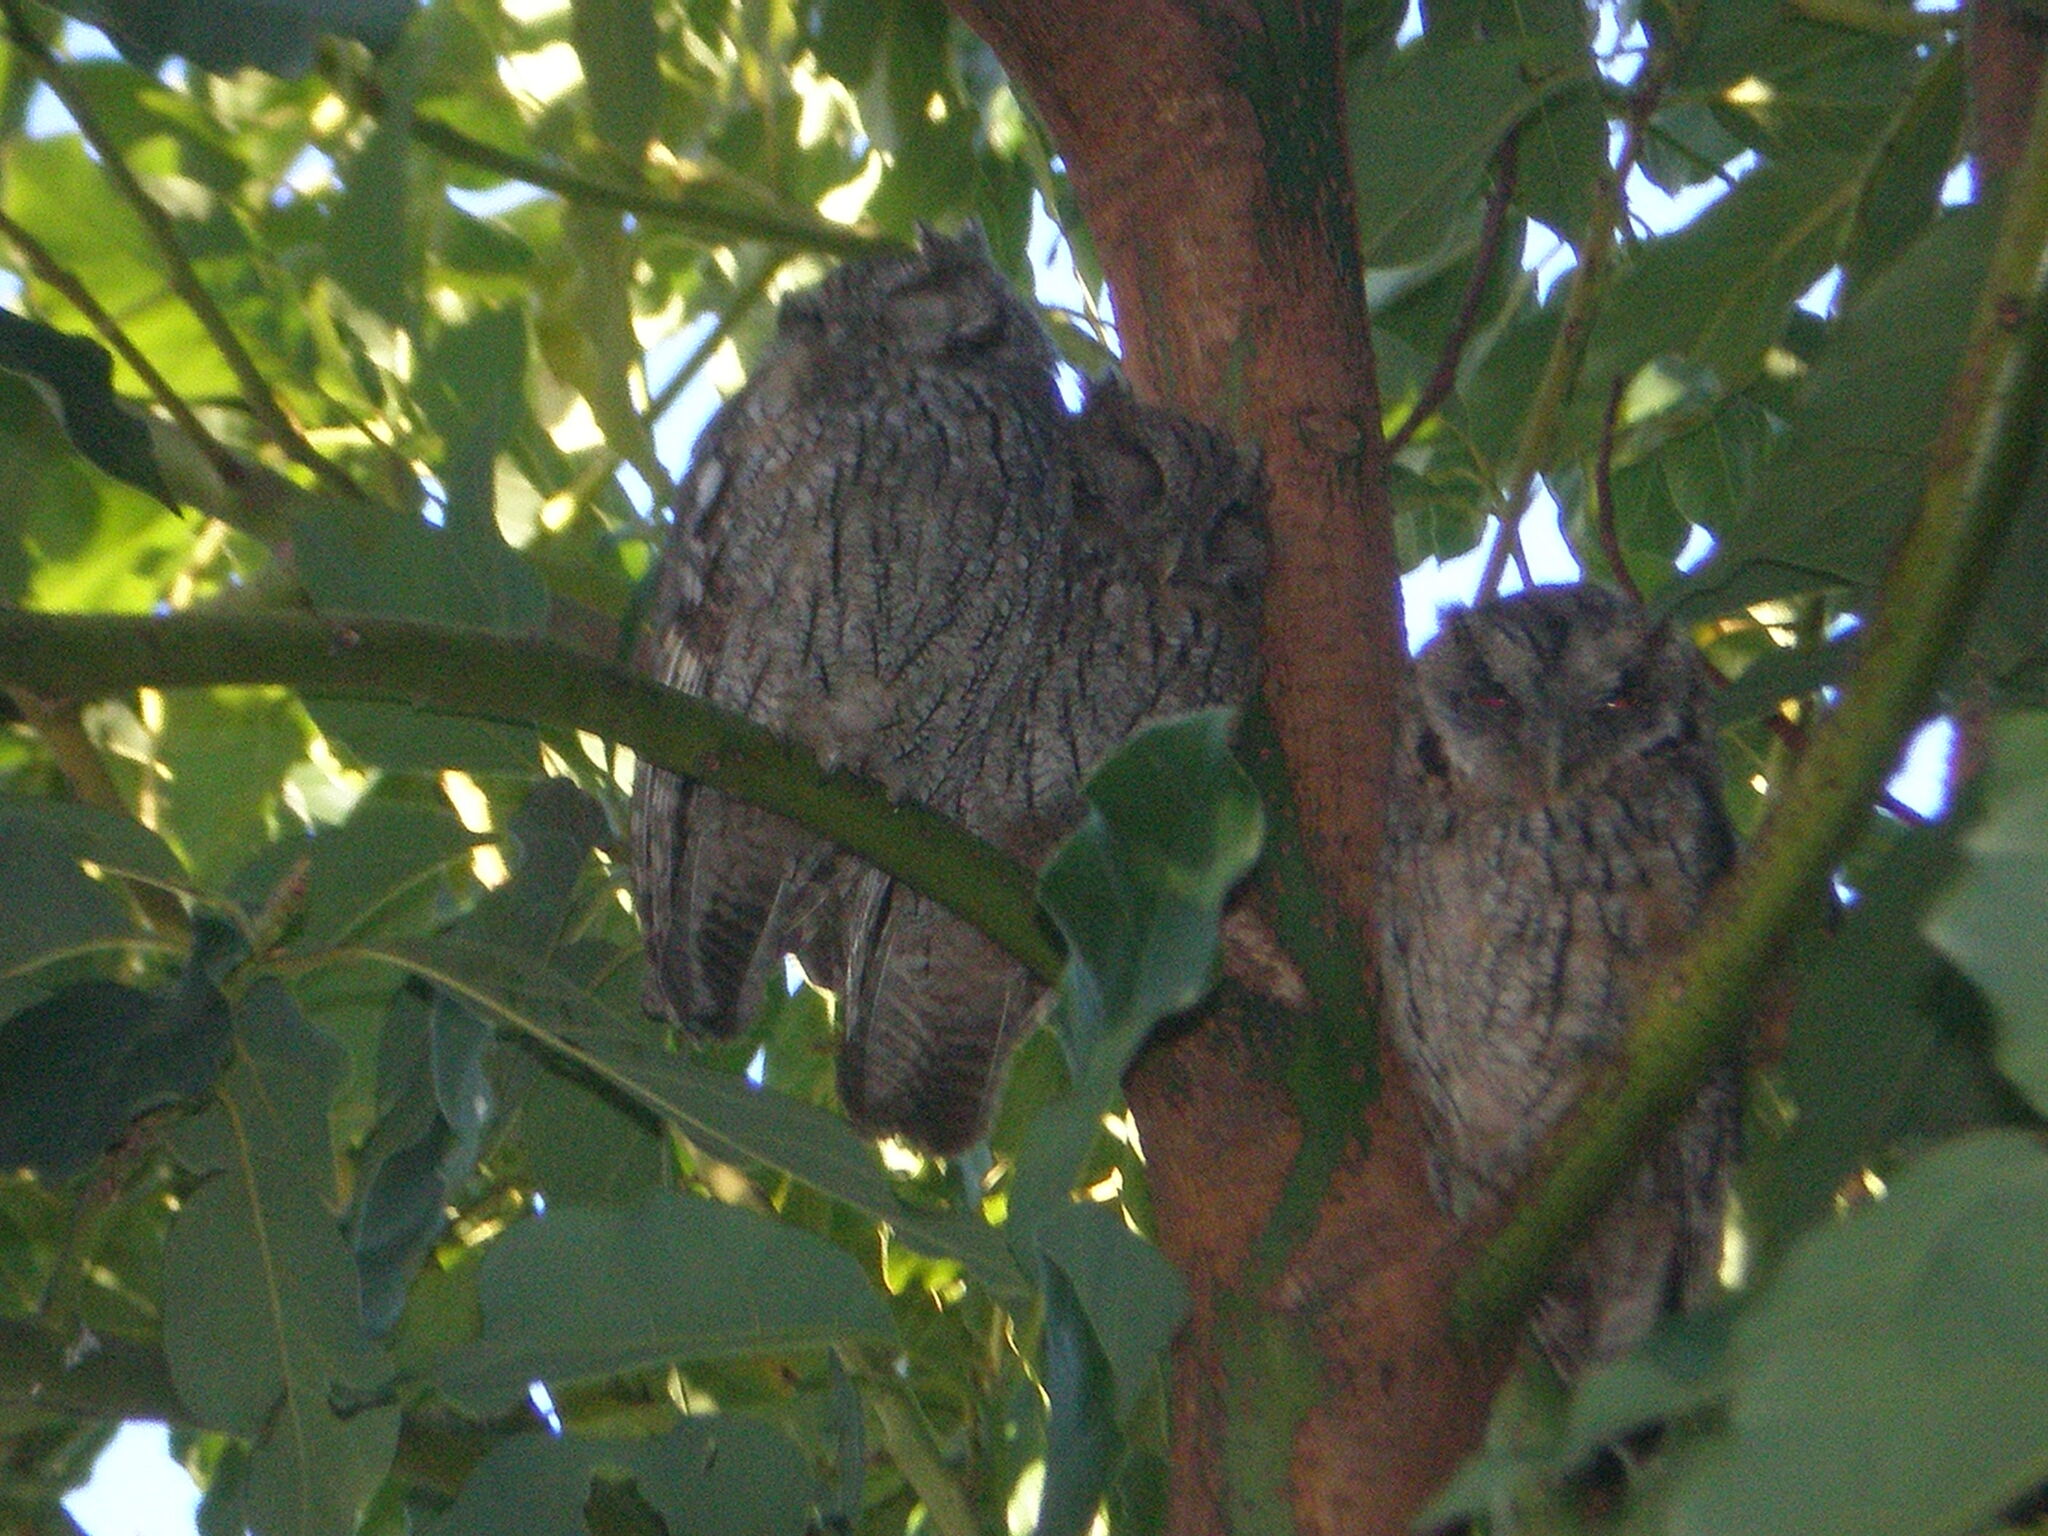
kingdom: Animalia
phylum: Chordata
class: Aves
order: Strigiformes
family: Strigidae
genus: Megascops
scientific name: Megascops choliba
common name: Tropical screech-owl
